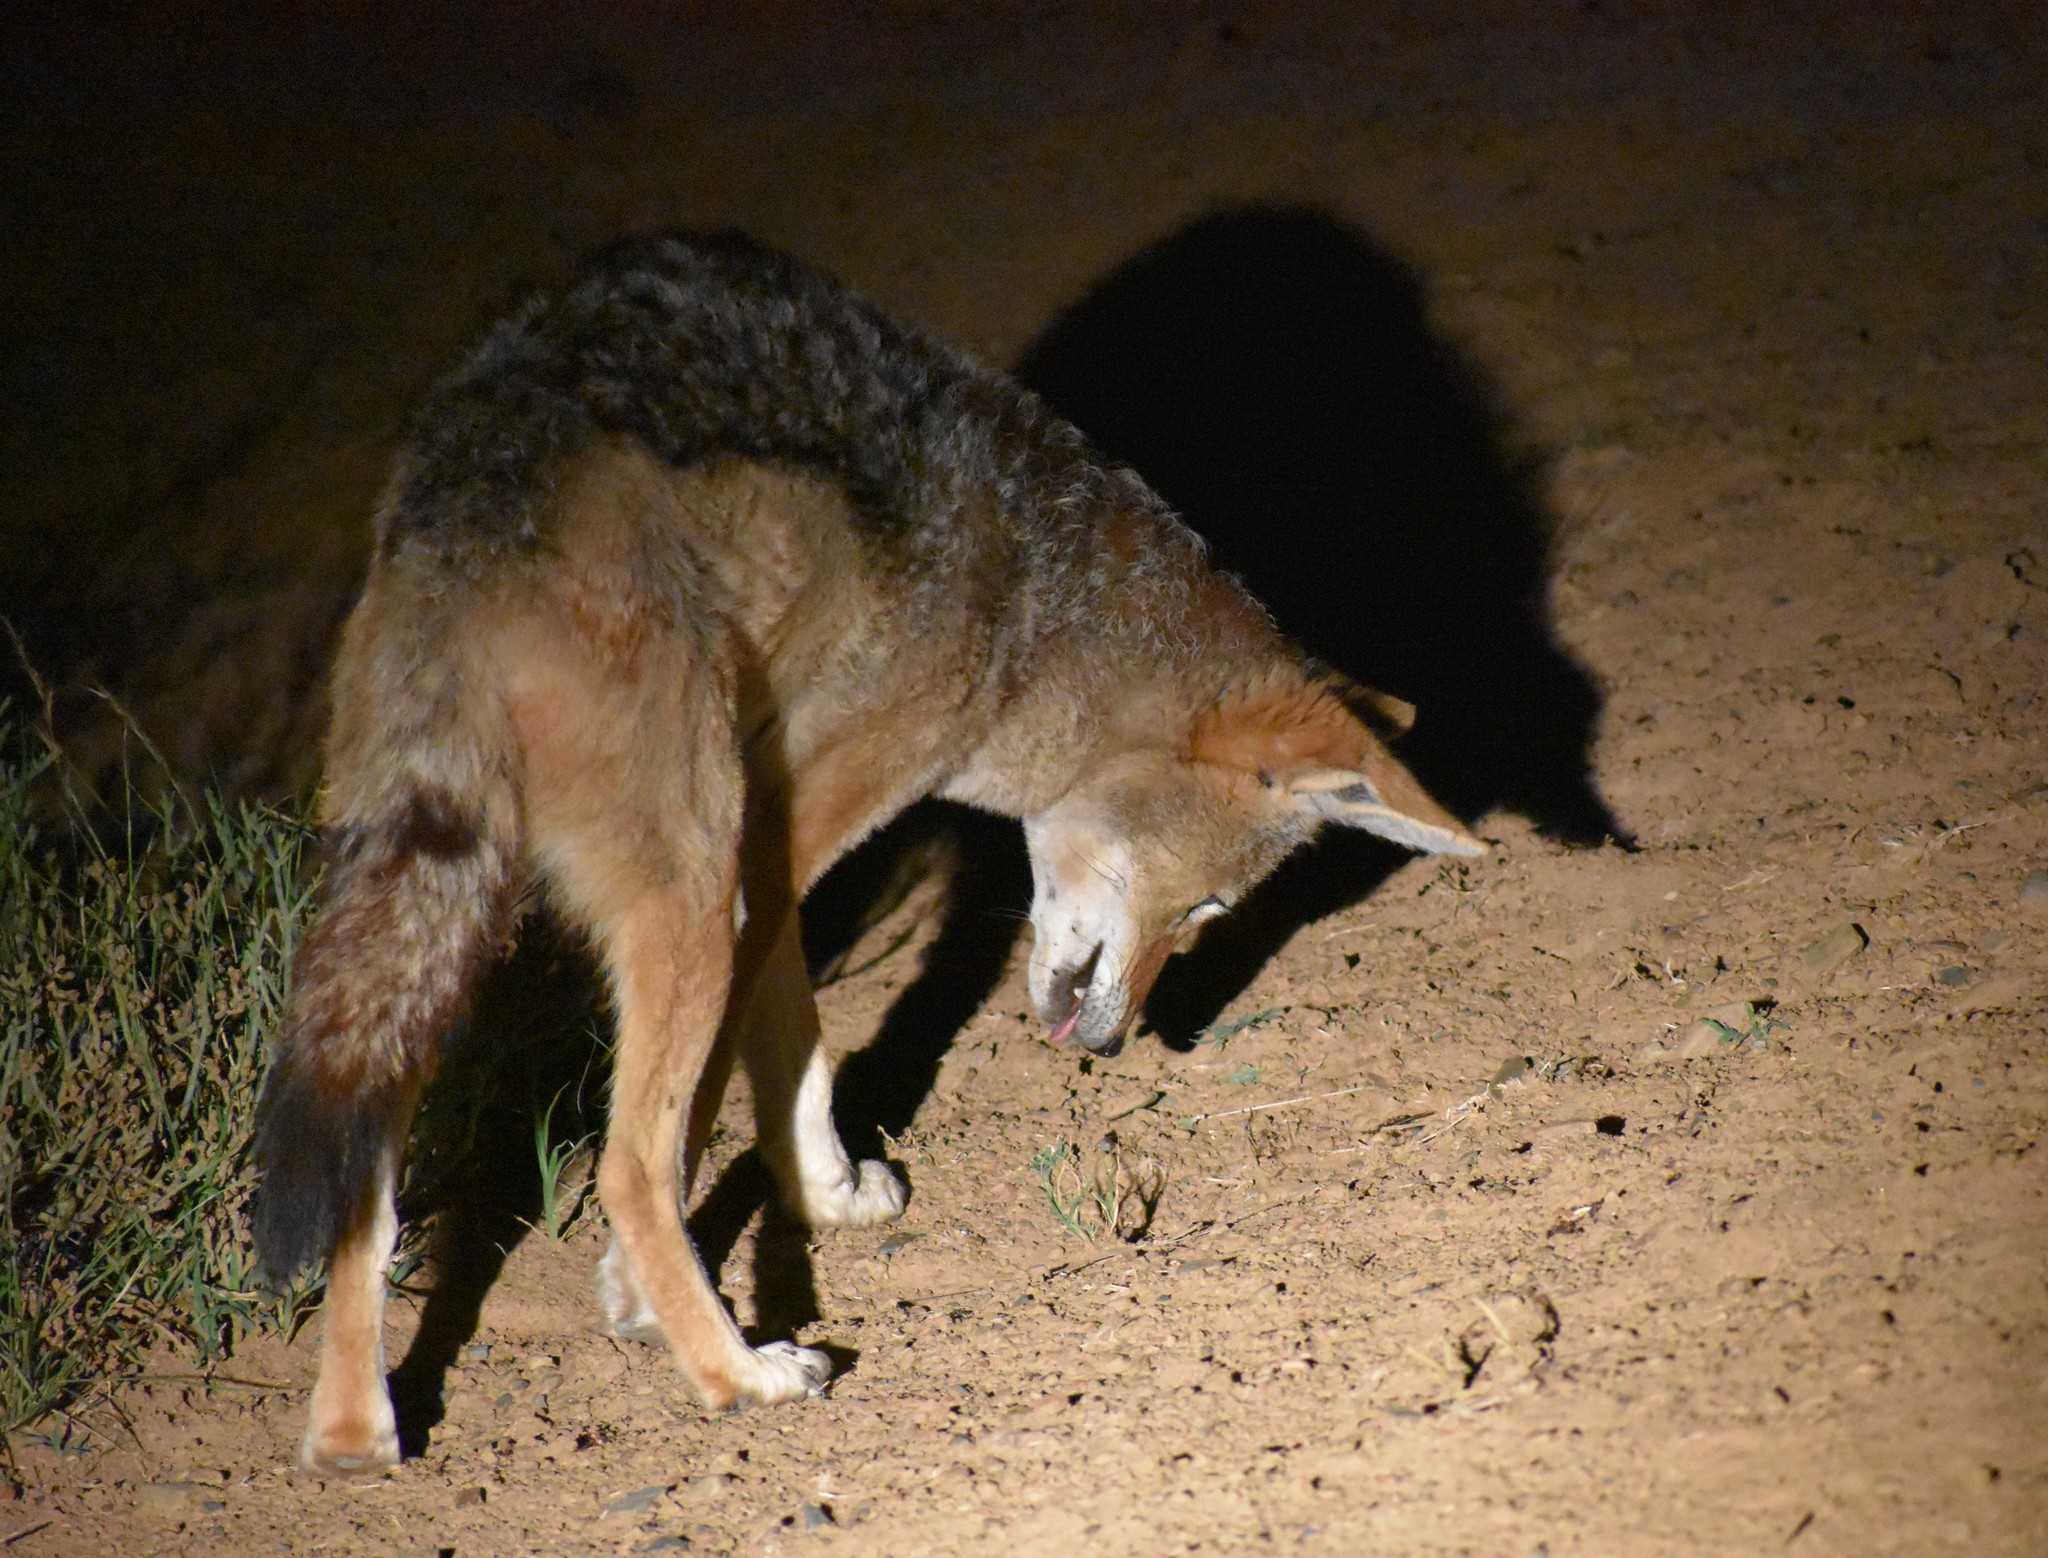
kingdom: Animalia
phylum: Chordata
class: Mammalia
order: Carnivora
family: Canidae
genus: Lupulella
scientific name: Lupulella
